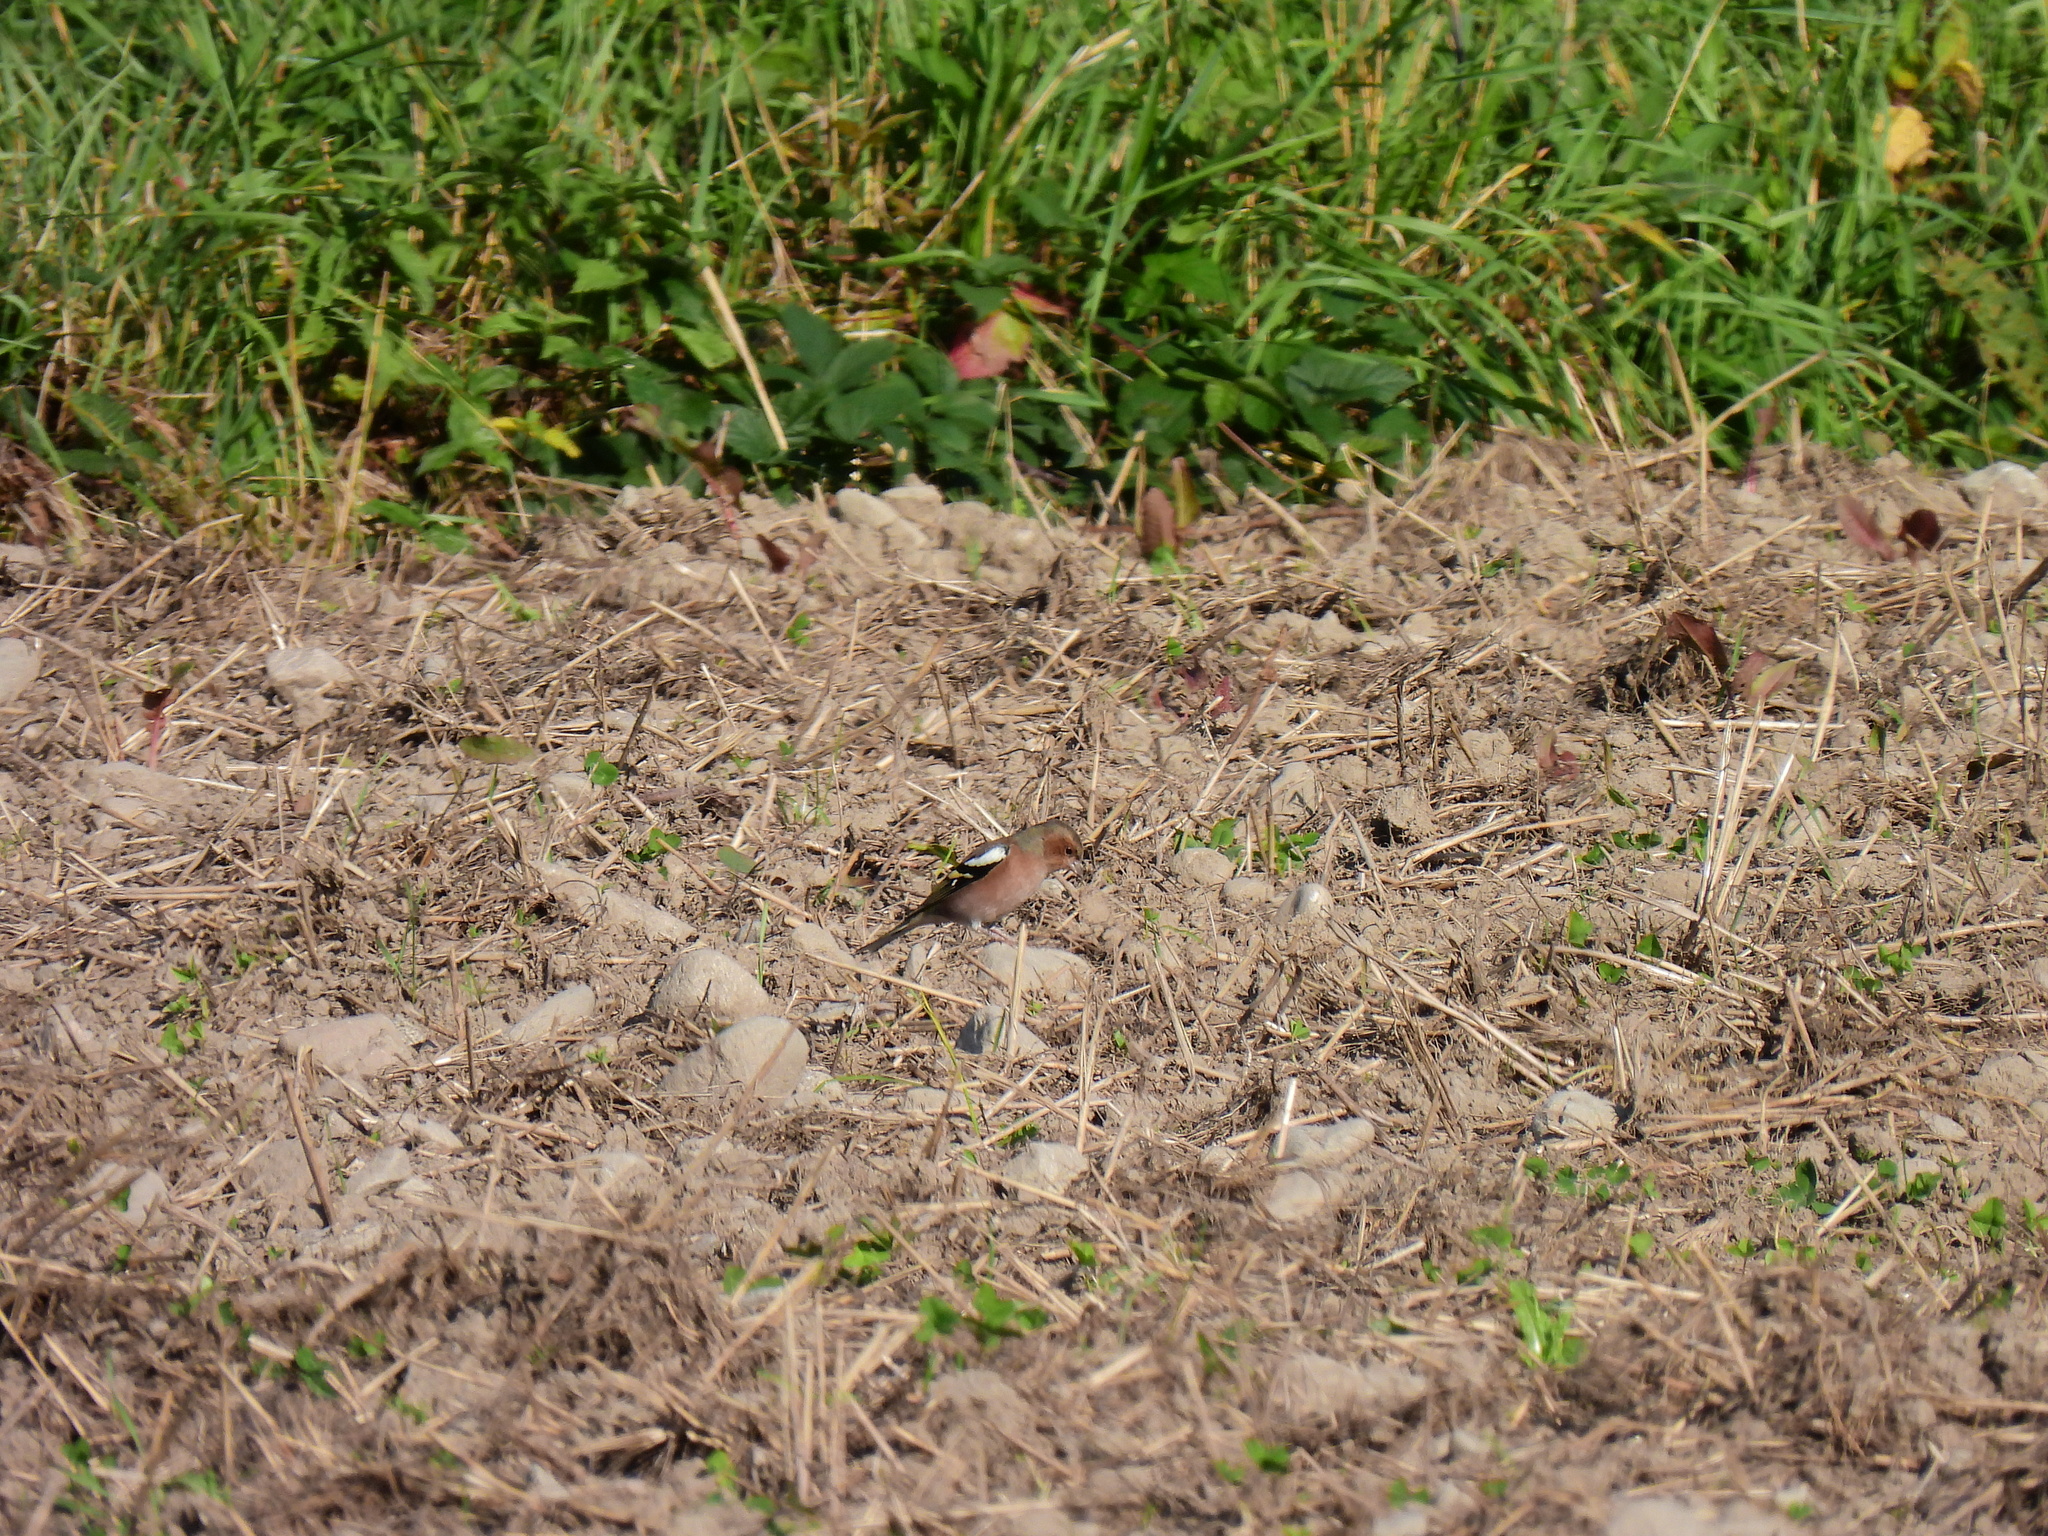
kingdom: Animalia
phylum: Chordata
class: Aves
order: Passeriformes
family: Fringillidae
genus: Fringilla
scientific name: Fringilla coelebs
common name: Common chaffinch
